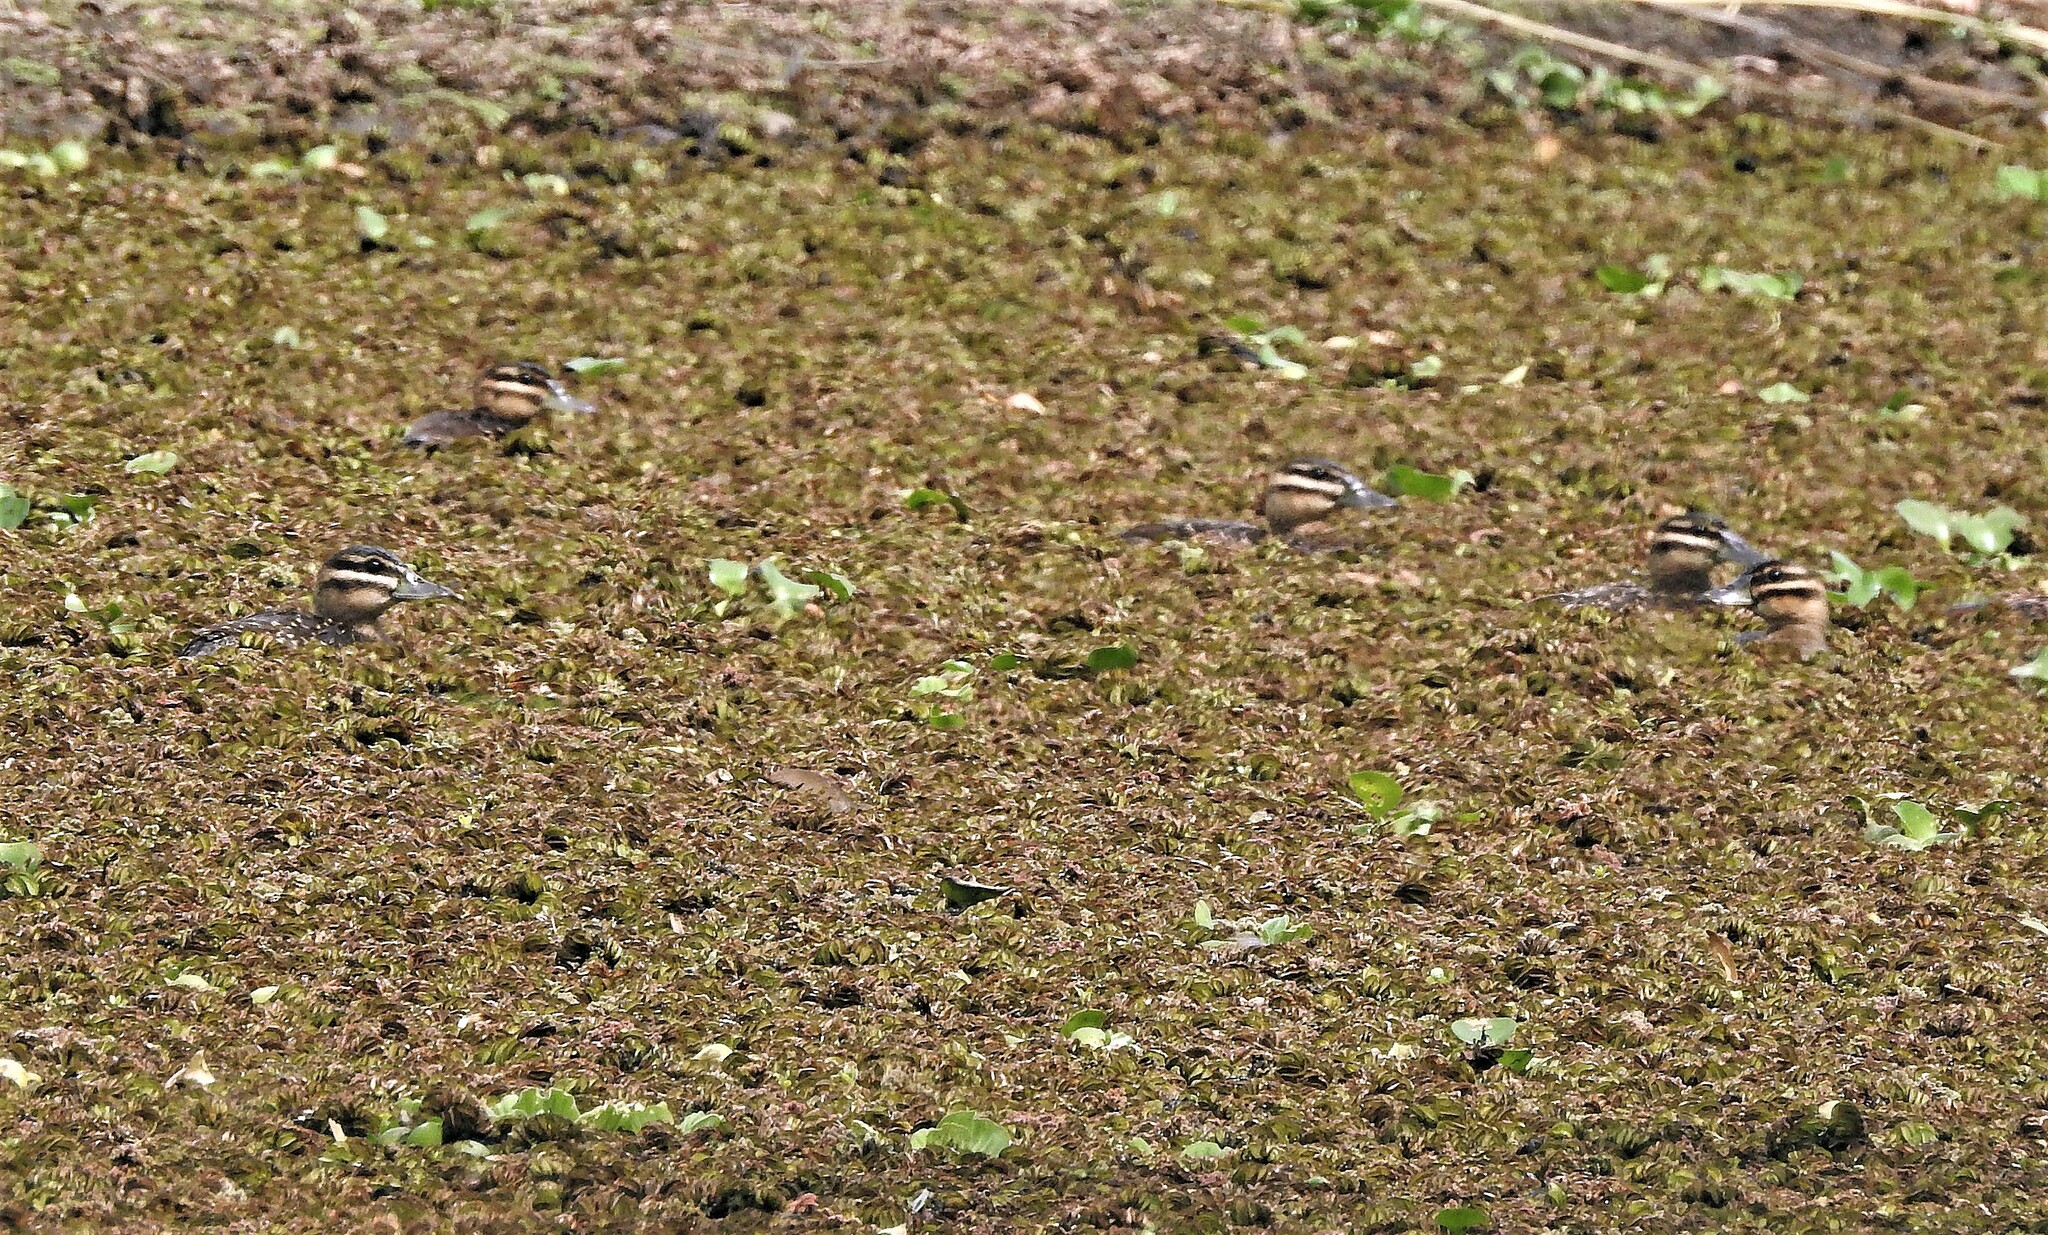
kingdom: Animalia
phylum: Chordata
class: Aves
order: Anseriformes
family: Anatidae
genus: Nomonyx
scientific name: Nomonyx dominicus
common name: Masked duck
